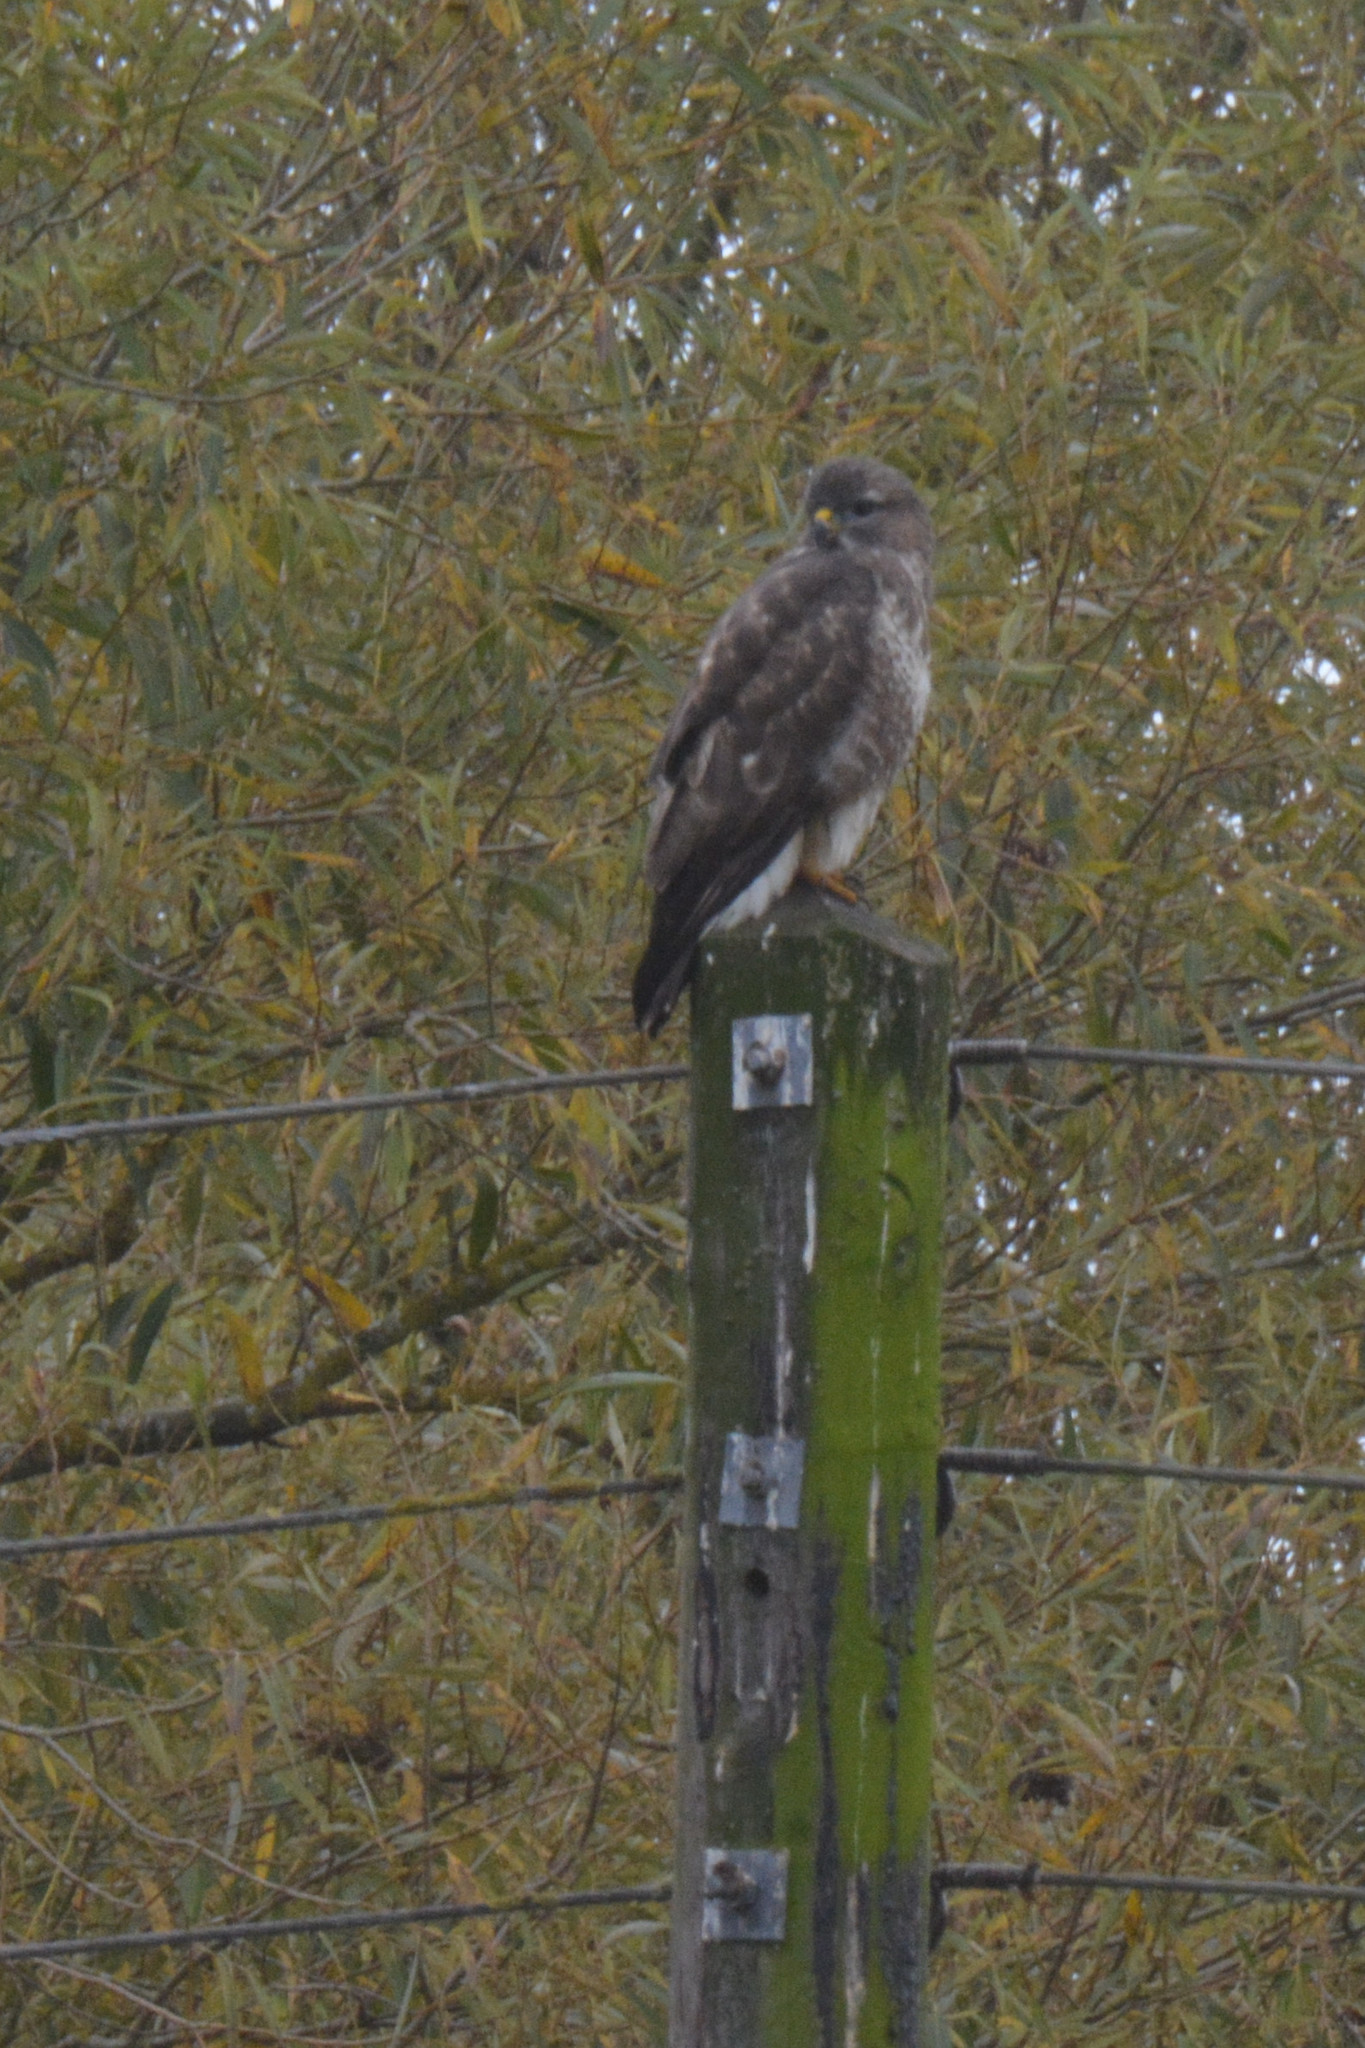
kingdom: Animalia
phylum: Chordata
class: Aves
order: Accipitriformes
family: Accipitridae
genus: Buteo
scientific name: Buteo buteo
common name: Common buzzard
